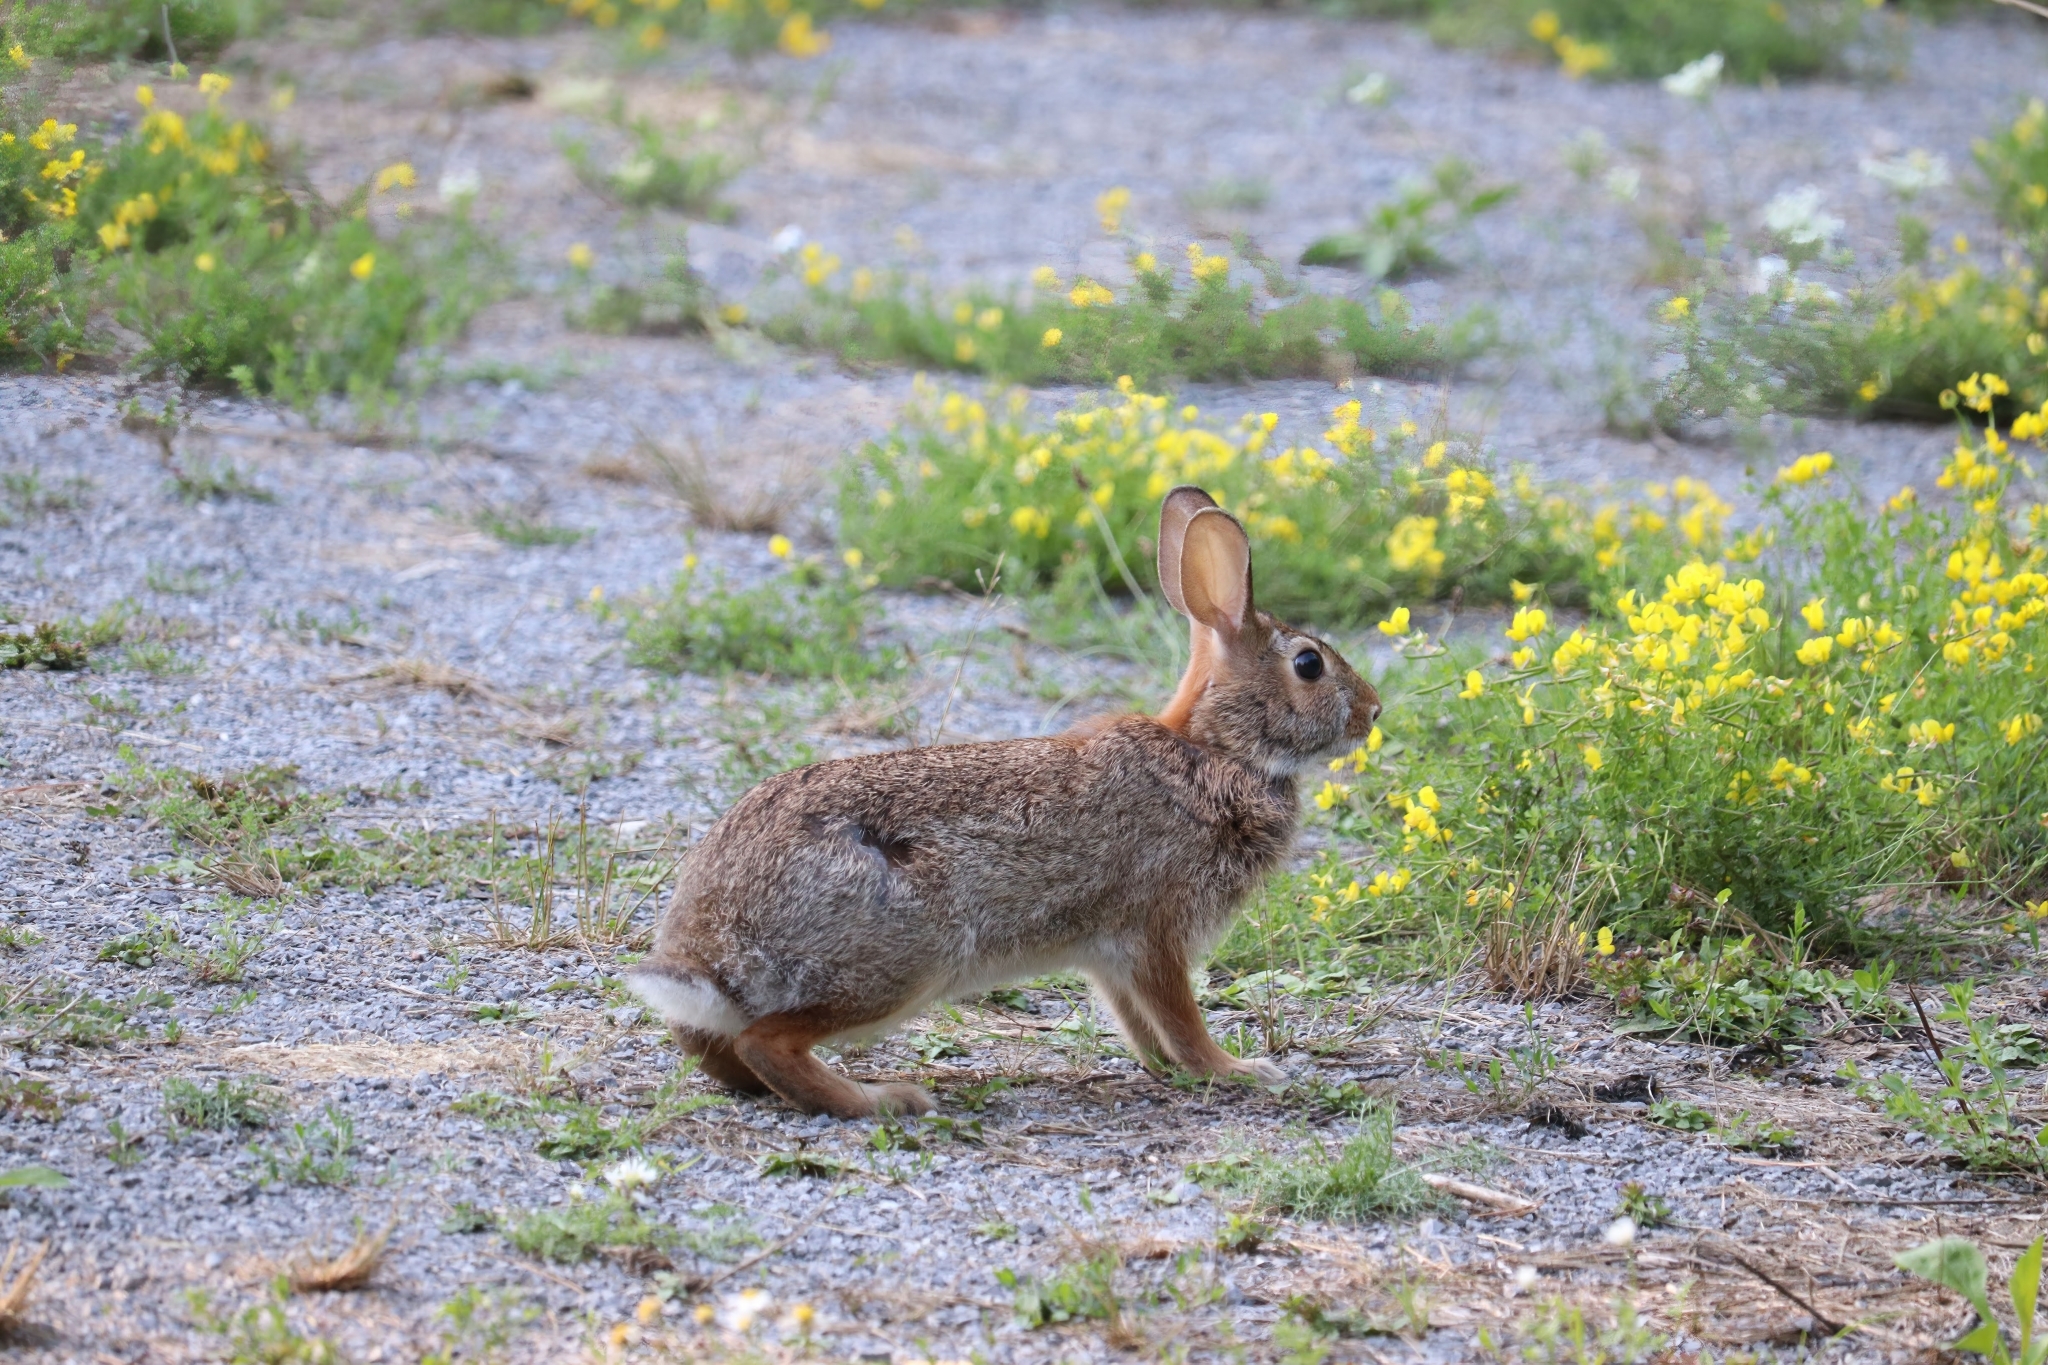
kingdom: Animalia
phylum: Chordata
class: Mammalia
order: Lagomorpha
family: Leporidae
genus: Sylvilagus
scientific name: Sylvilagus floridanus
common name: Eastern cottontail
